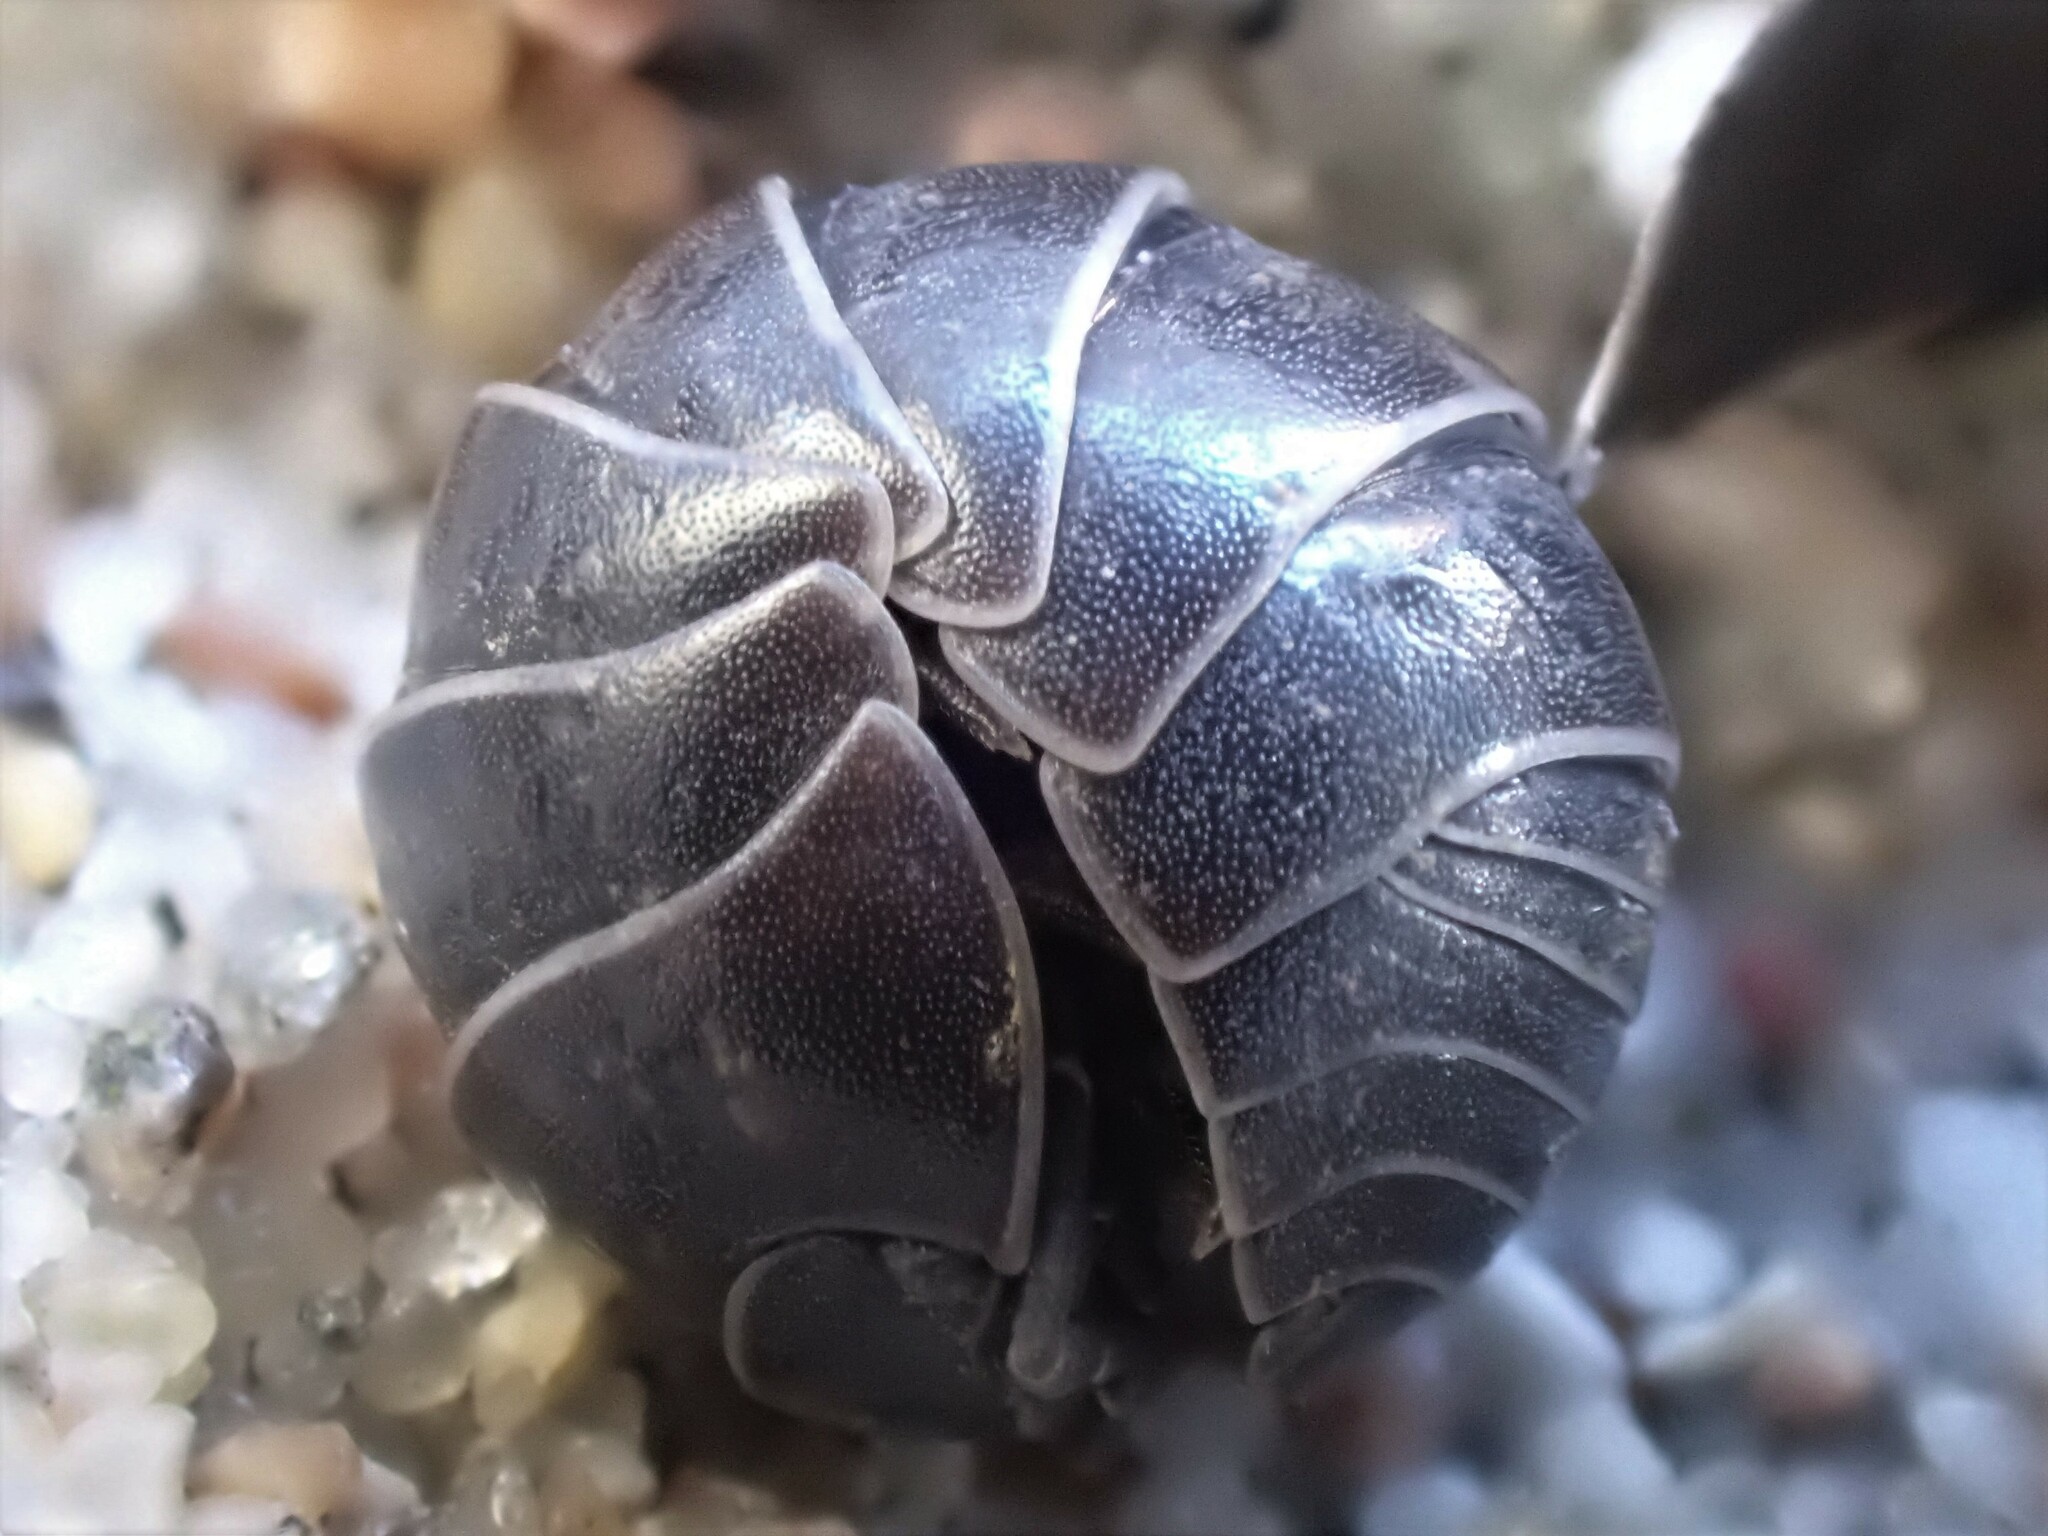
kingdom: Animalia
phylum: Arthropoda
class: Malacostraca
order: Isopoda
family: Armadillidiidae
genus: Armadillidium
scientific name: Armadillidium vulgare
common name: Common pill woodlouse
